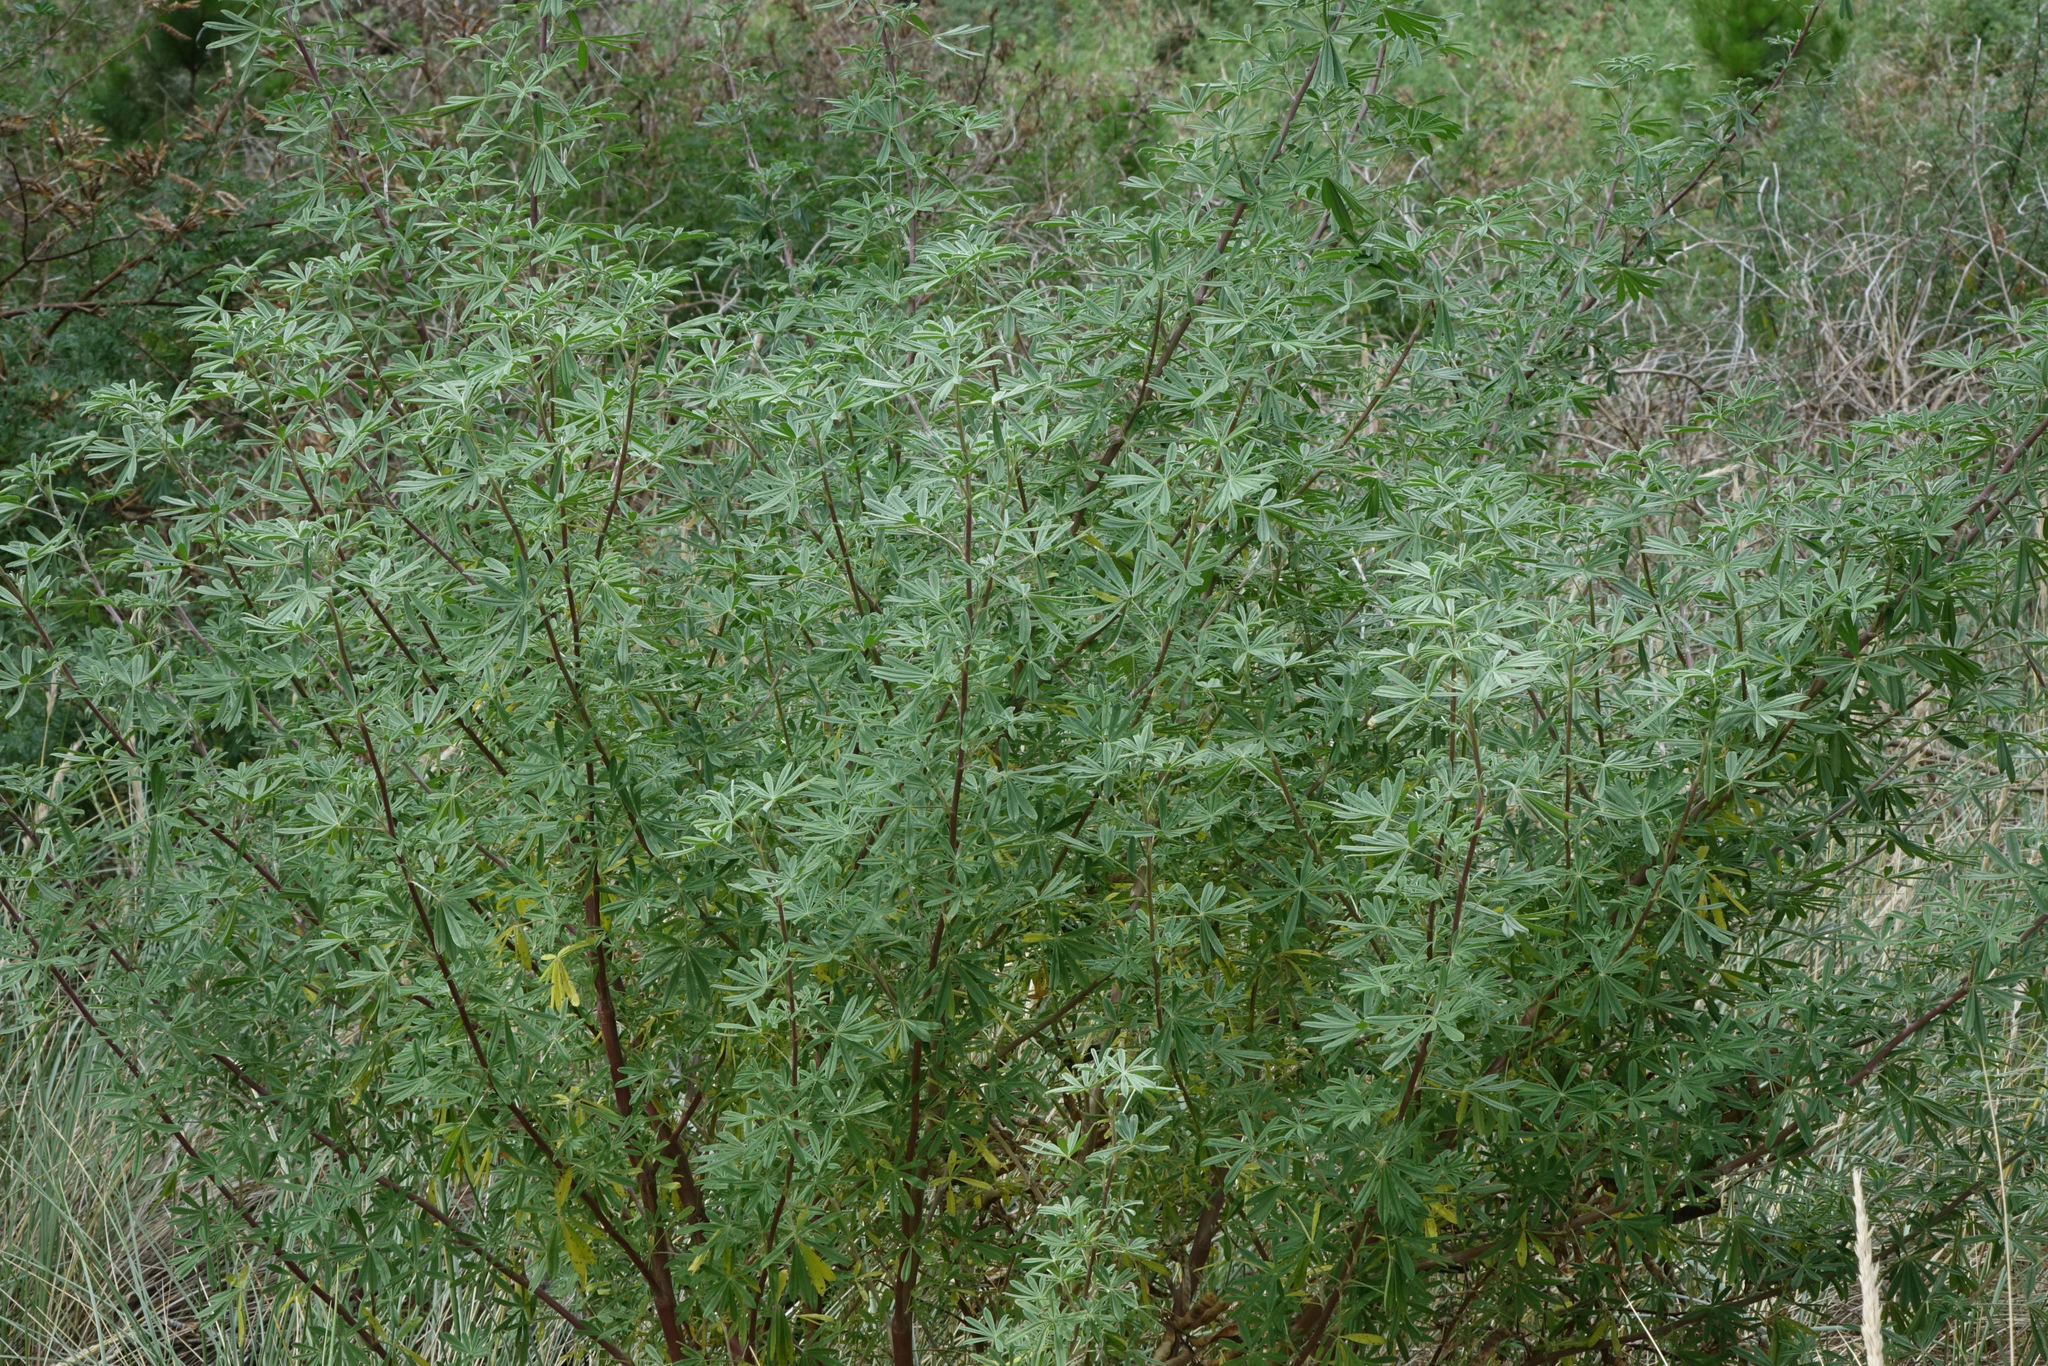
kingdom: Plantae
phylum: Tracheophyta
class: Magnoliopsida
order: Fabales
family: Fabaceae
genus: Lupinus
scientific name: Lupinus arboreus
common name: Yellow bush lupine
